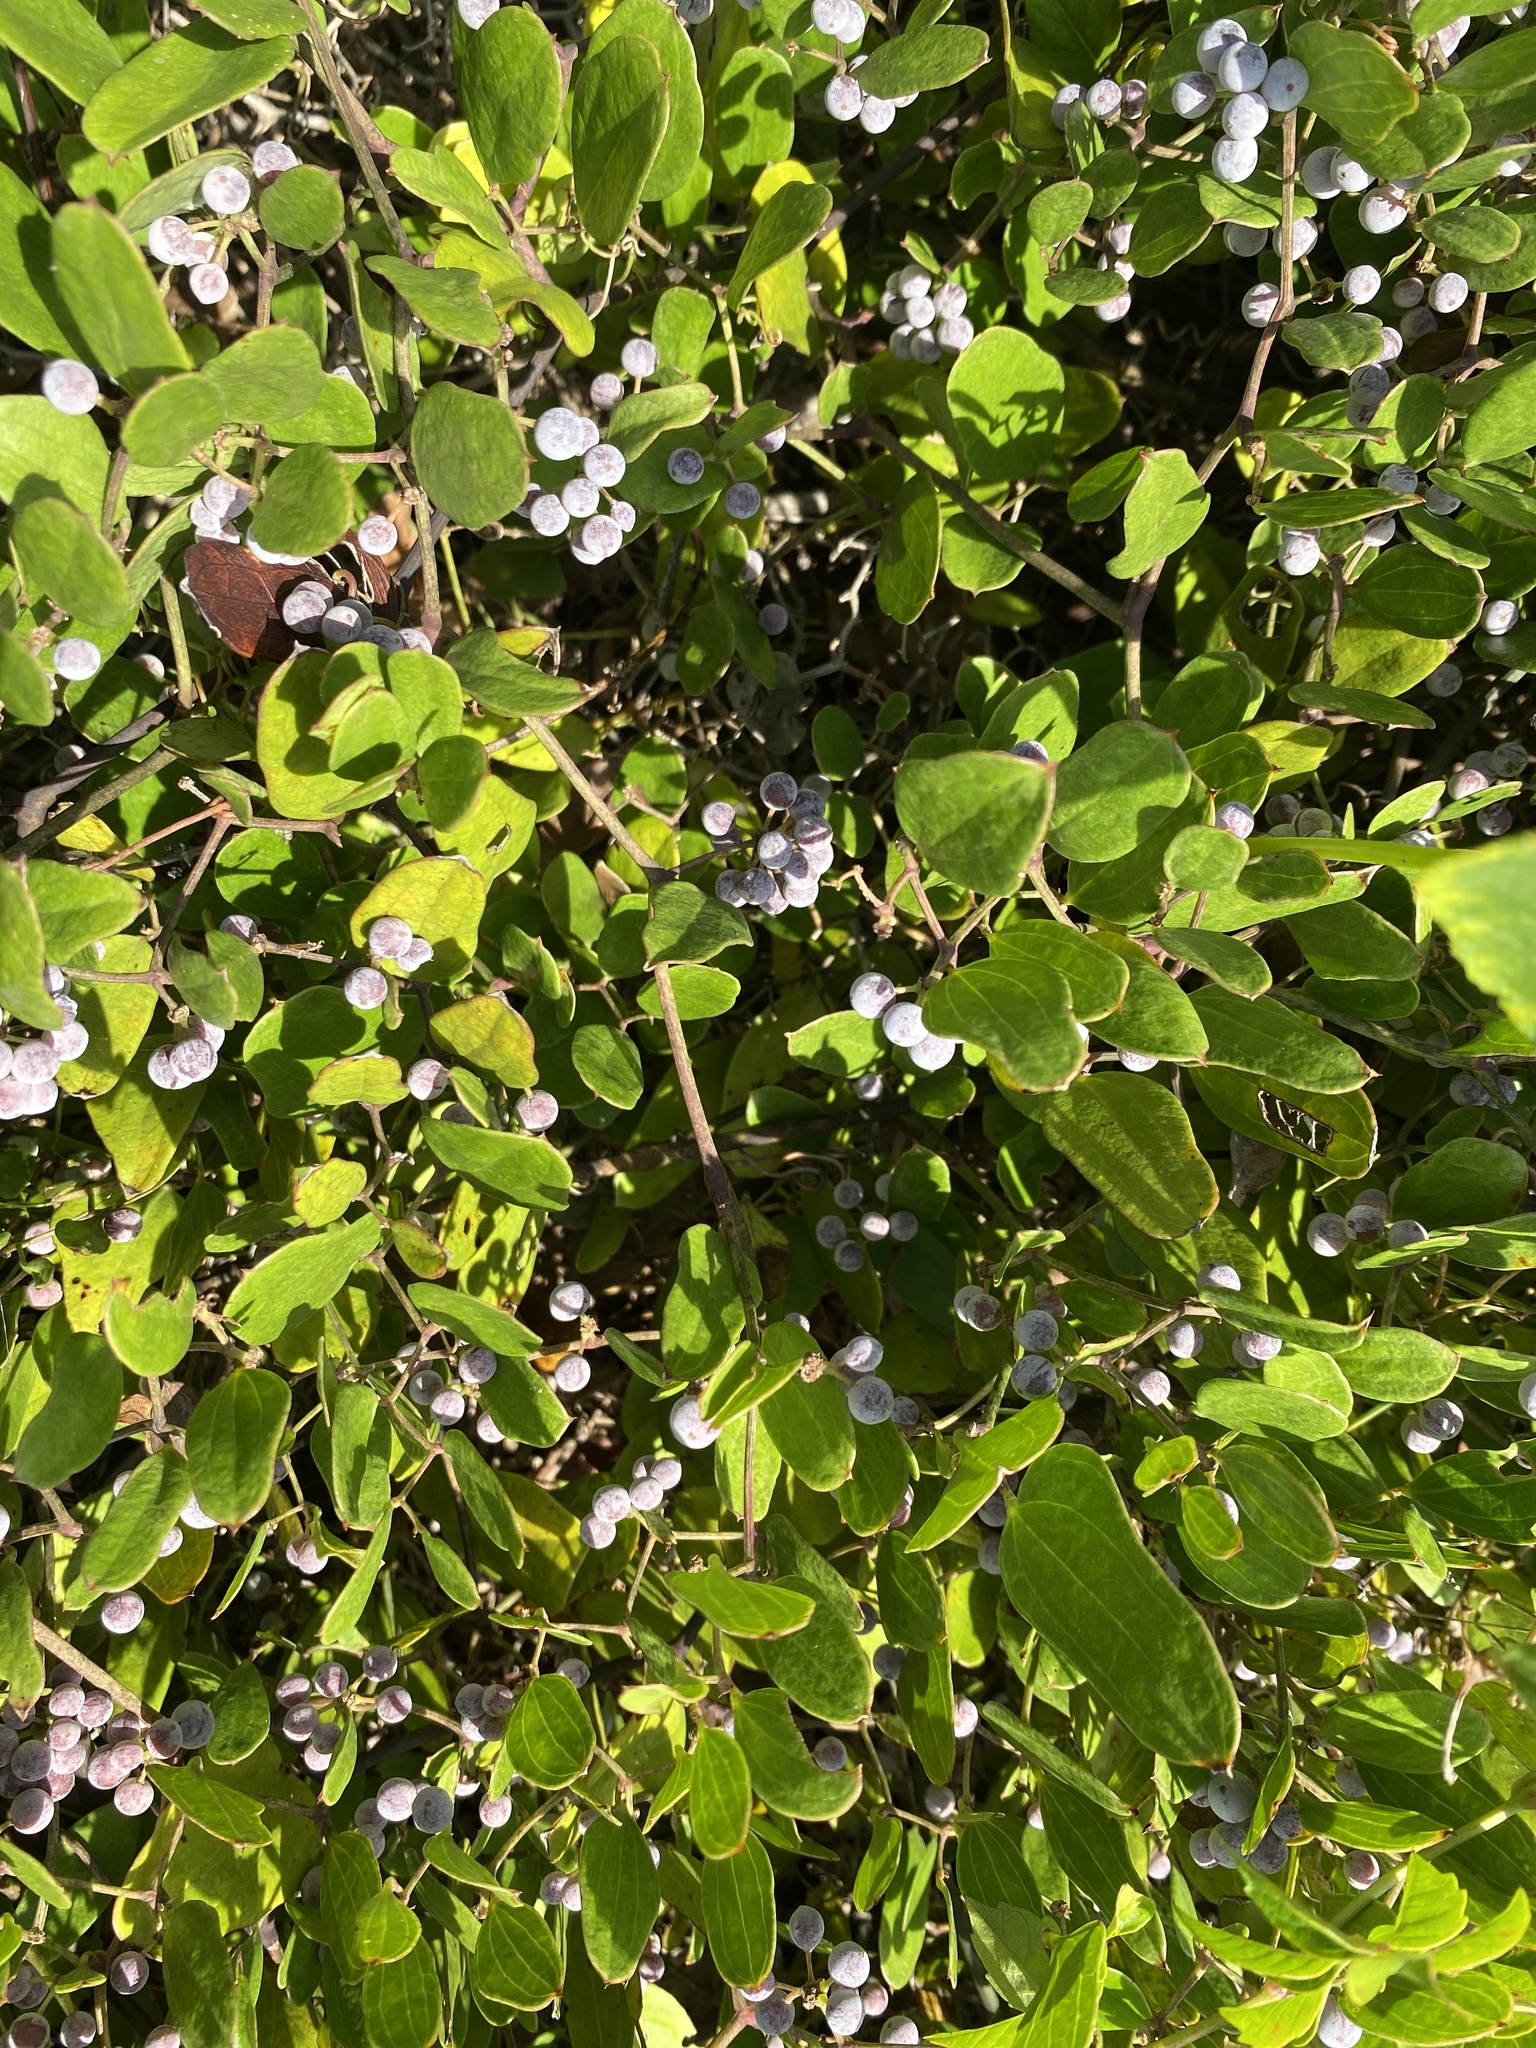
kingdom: Plantae
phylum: Tracheophyta
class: Liliopsida
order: Liliales
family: Smilacaceae
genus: Smilax
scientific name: Smilax auriculata
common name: Wild bamboo
